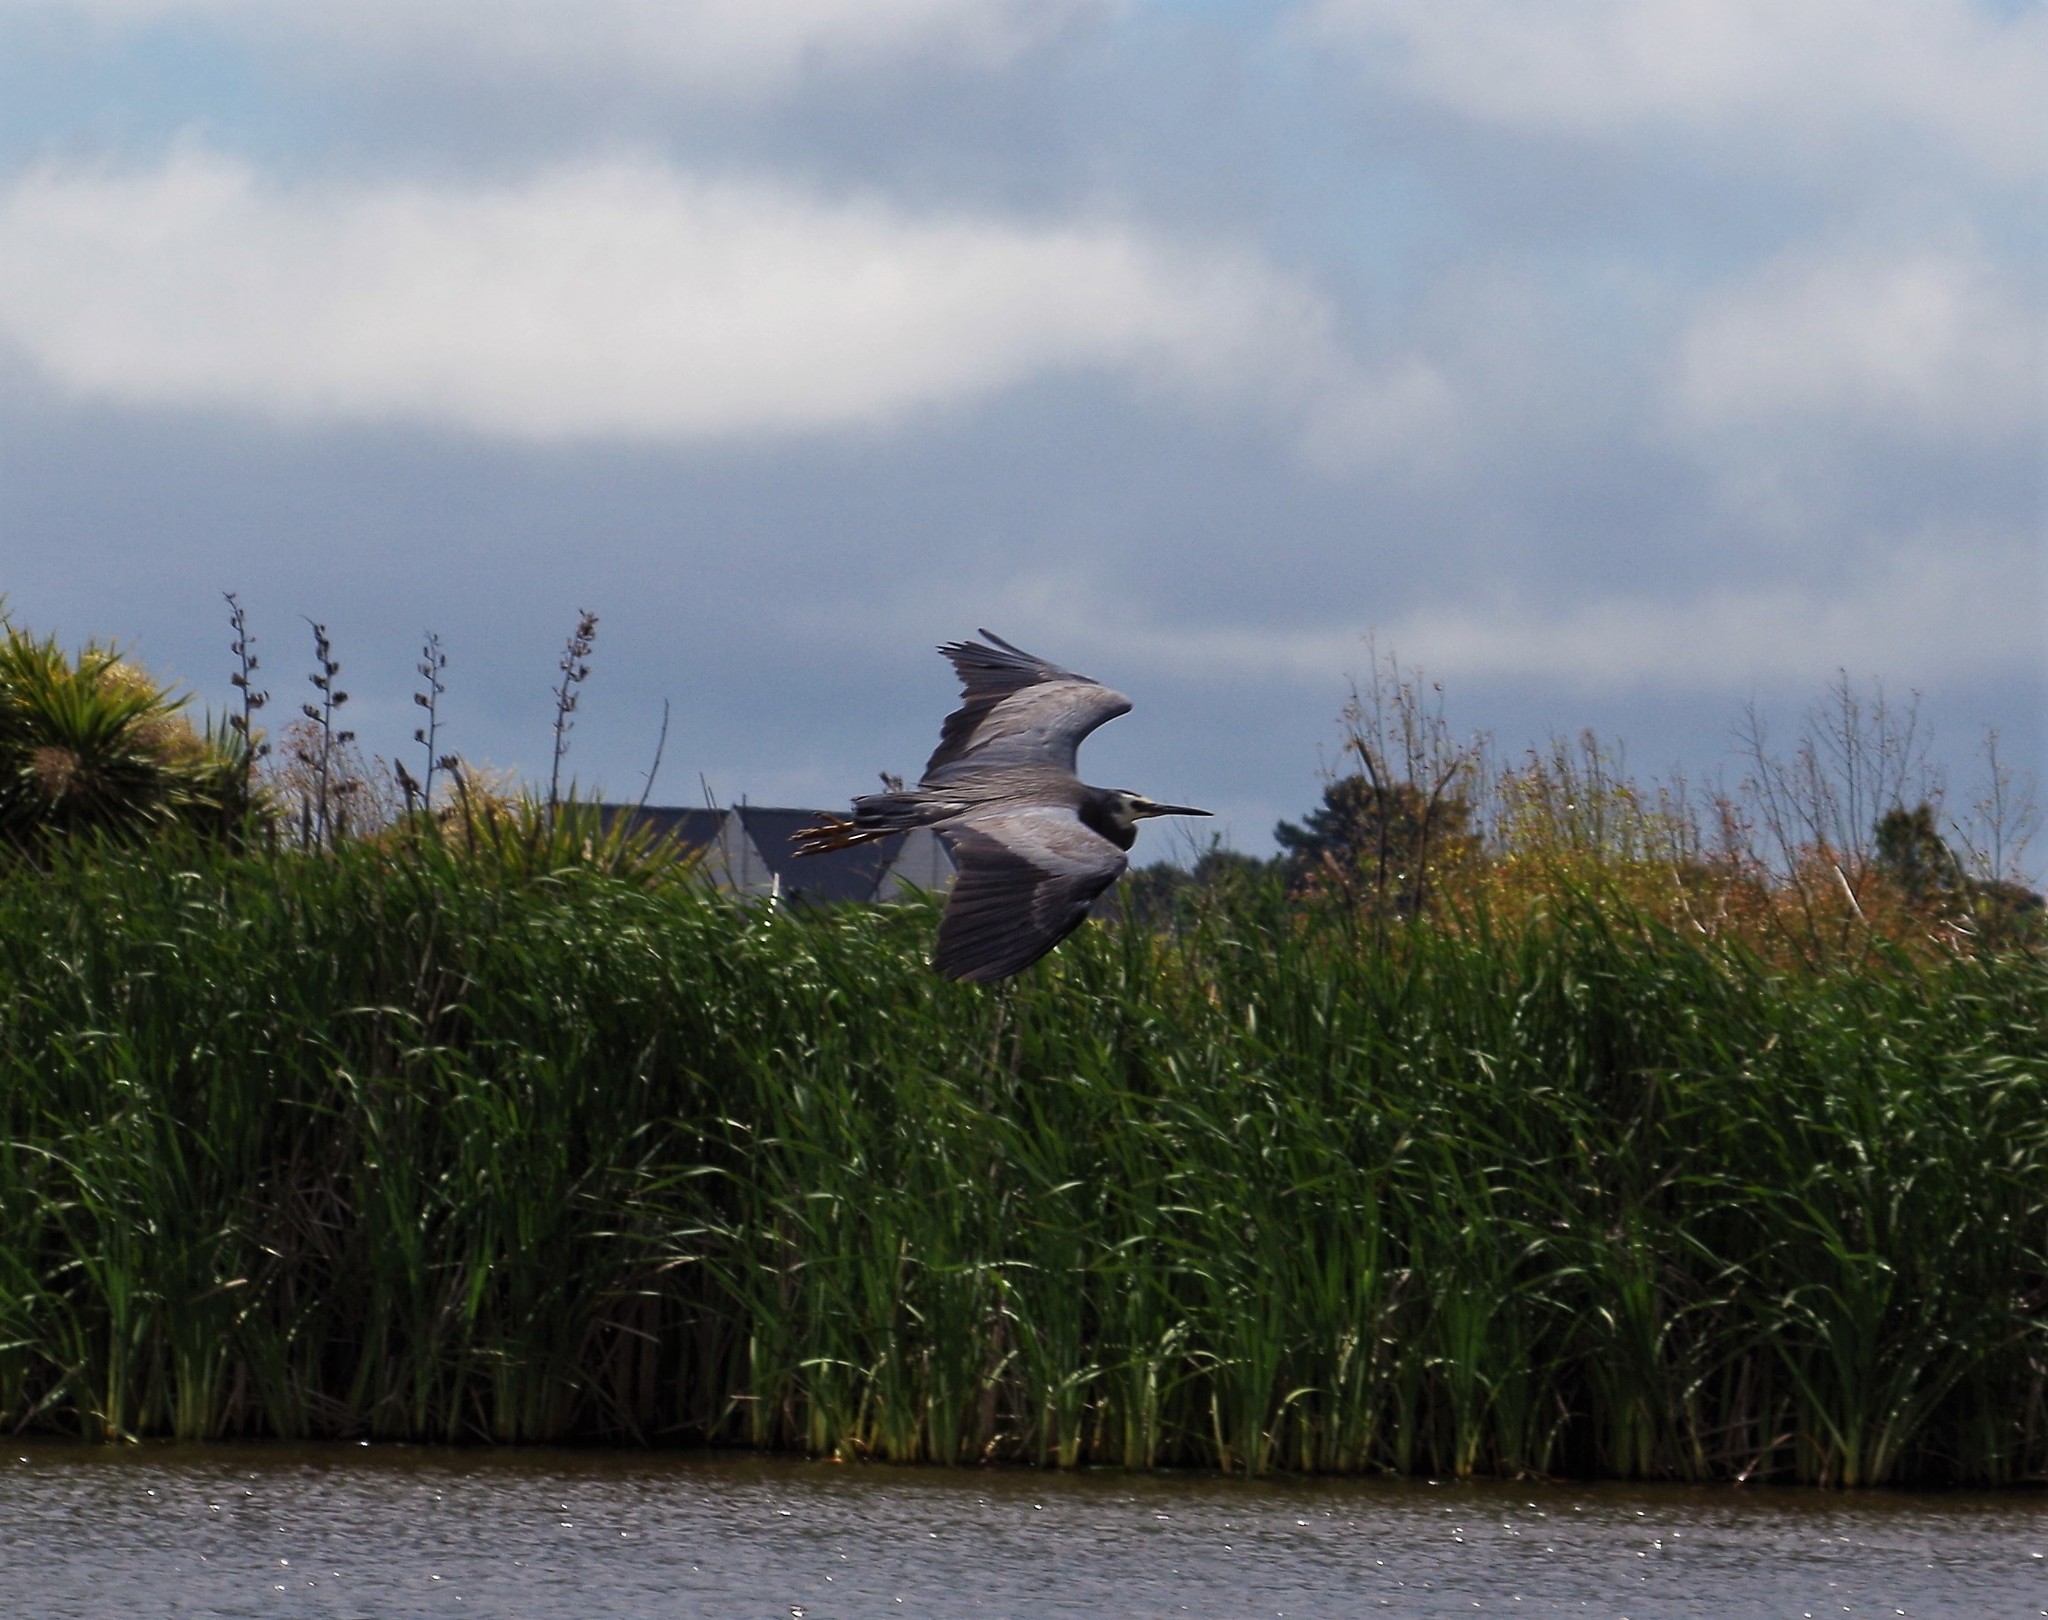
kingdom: Animalia
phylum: Chordata
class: Aves
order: Pelecaniformes
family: Ardeidae
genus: Egretta
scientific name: Egretta novaehollandiae
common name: White-faced heron
